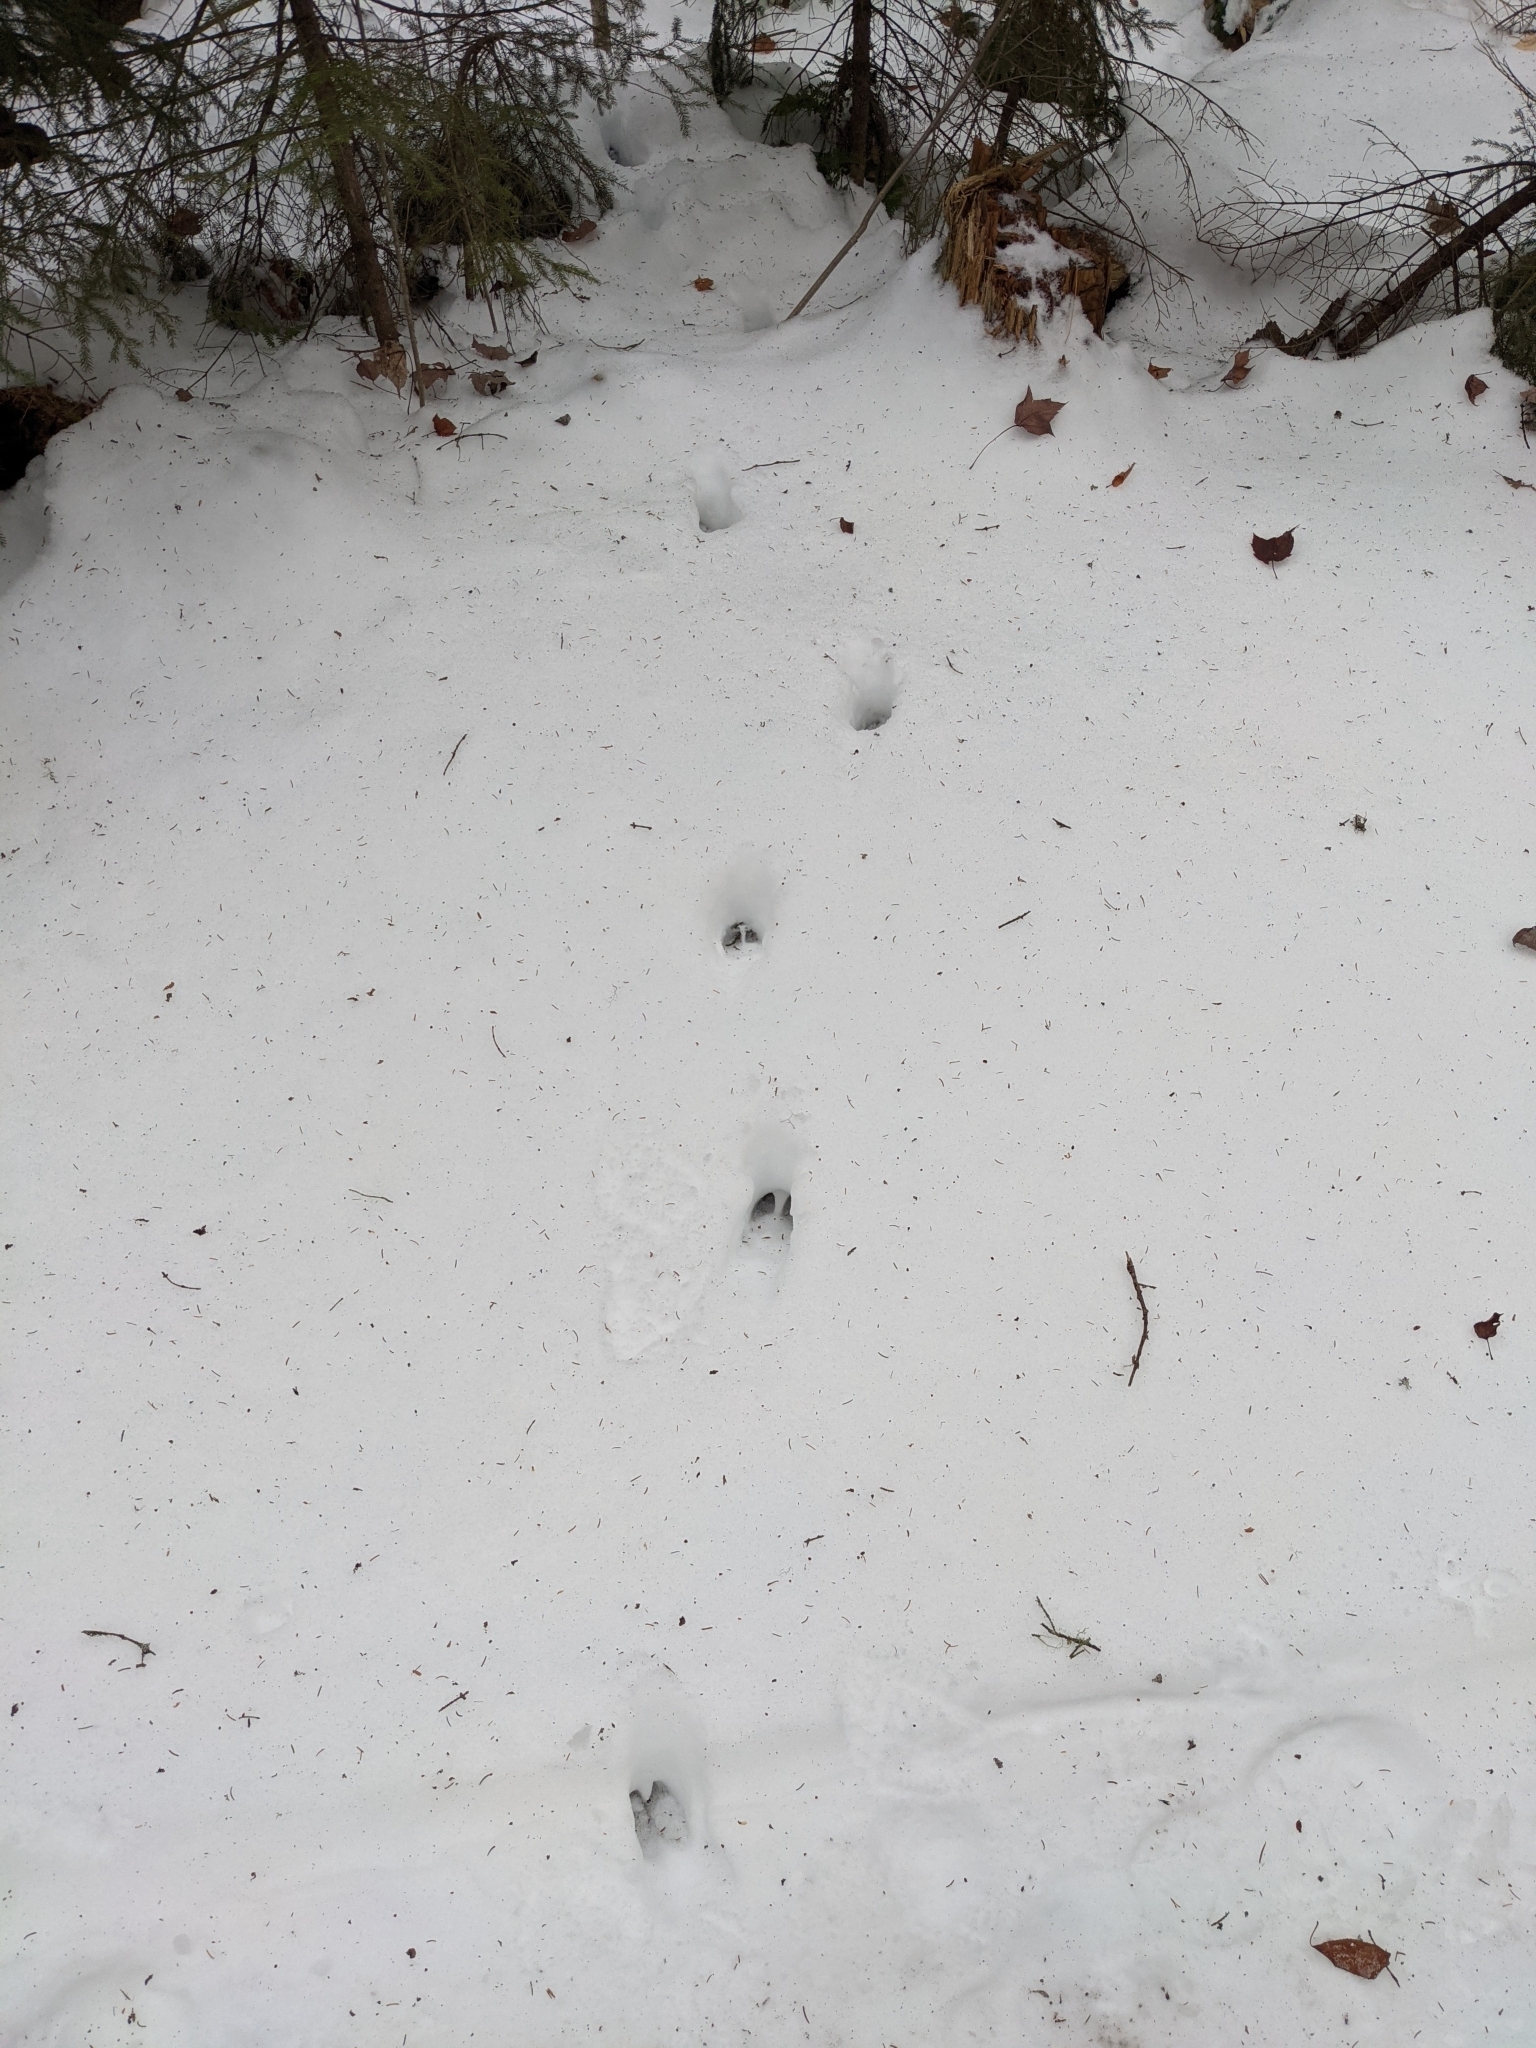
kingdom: Animalia
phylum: Chordata
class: Mammalia
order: Artiodactyla
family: Cervidae
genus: Odocoileus
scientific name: Odocoileus virginianus
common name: White-tailed deer
